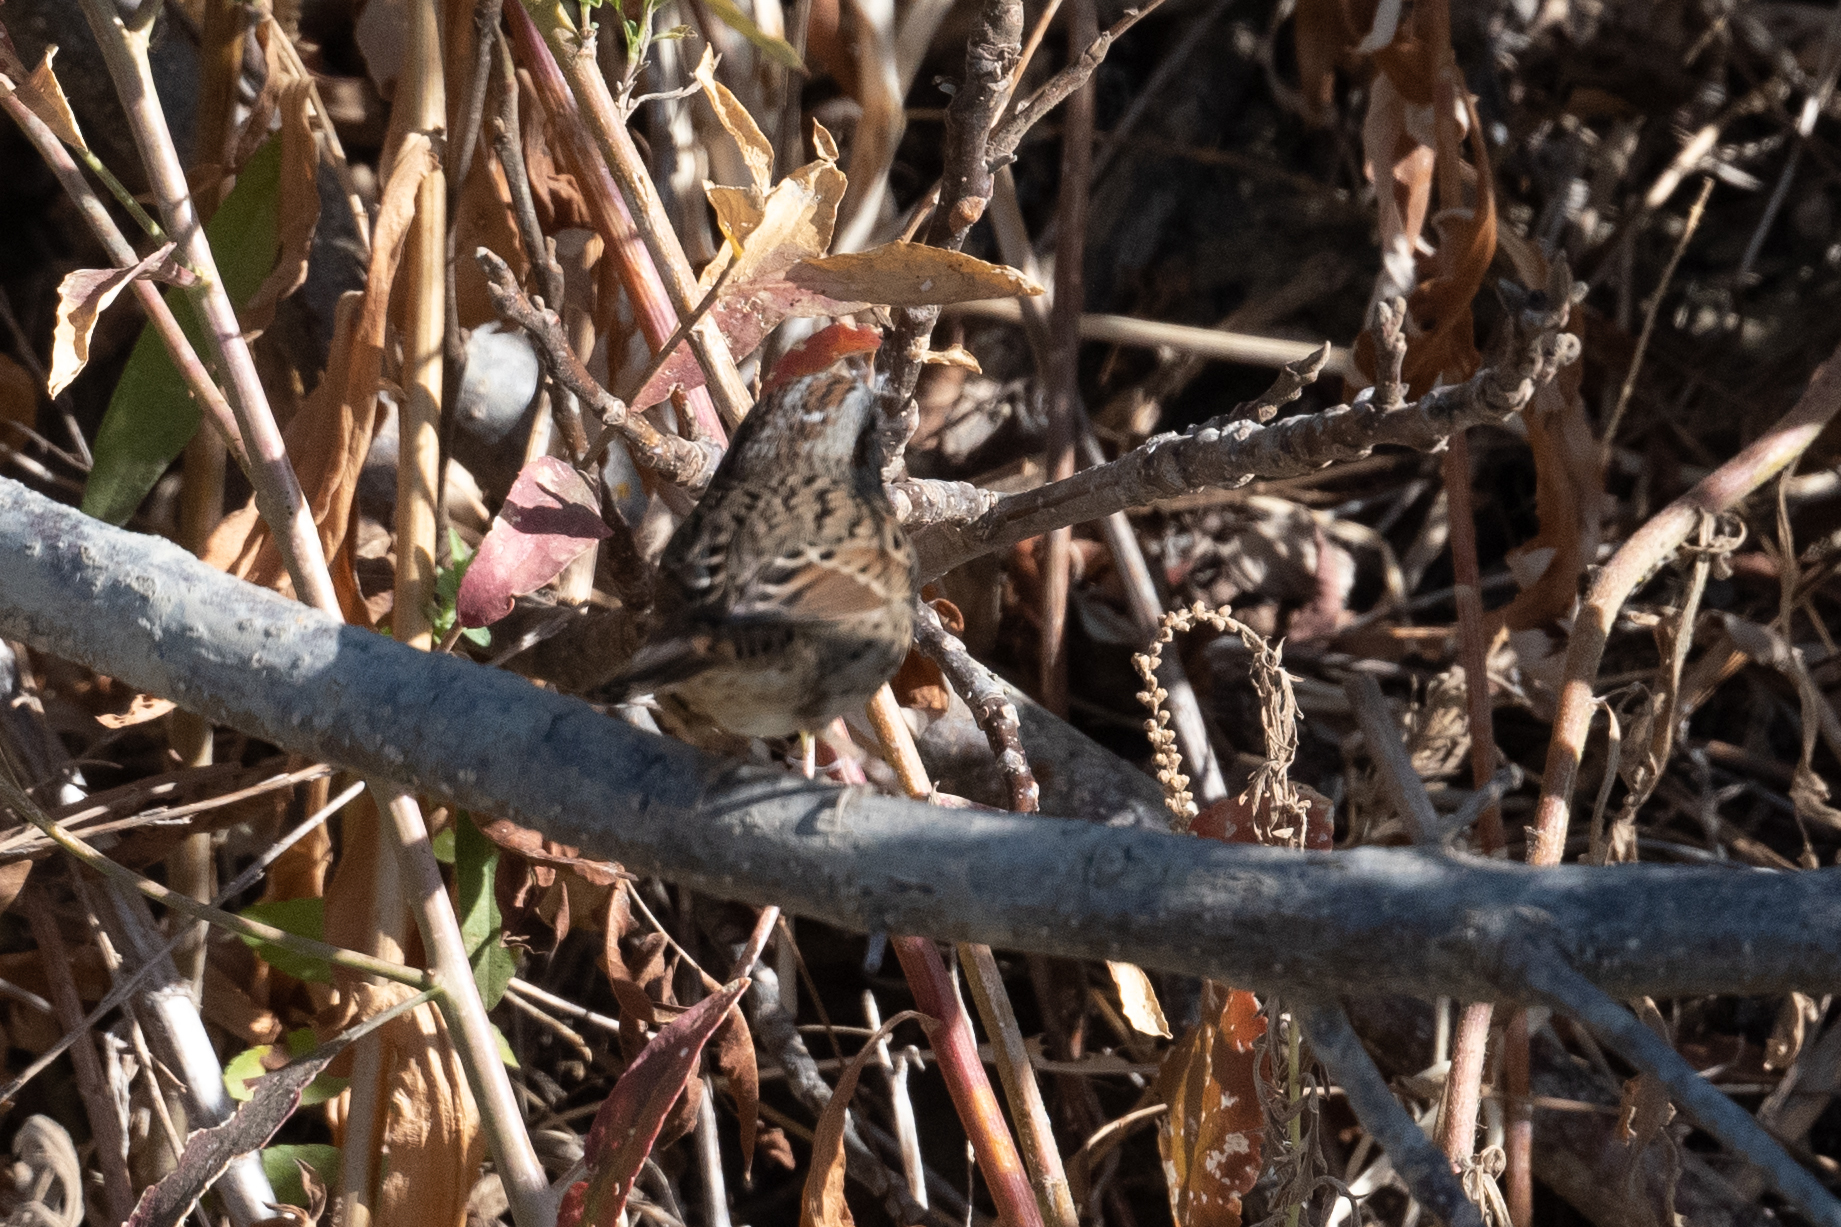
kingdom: Animalia
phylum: Chordata
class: Aves
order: Passeriformes
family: Passerellidae
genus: Melospiza
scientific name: Melospiza lincolnii
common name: Lincoln's sparrow
